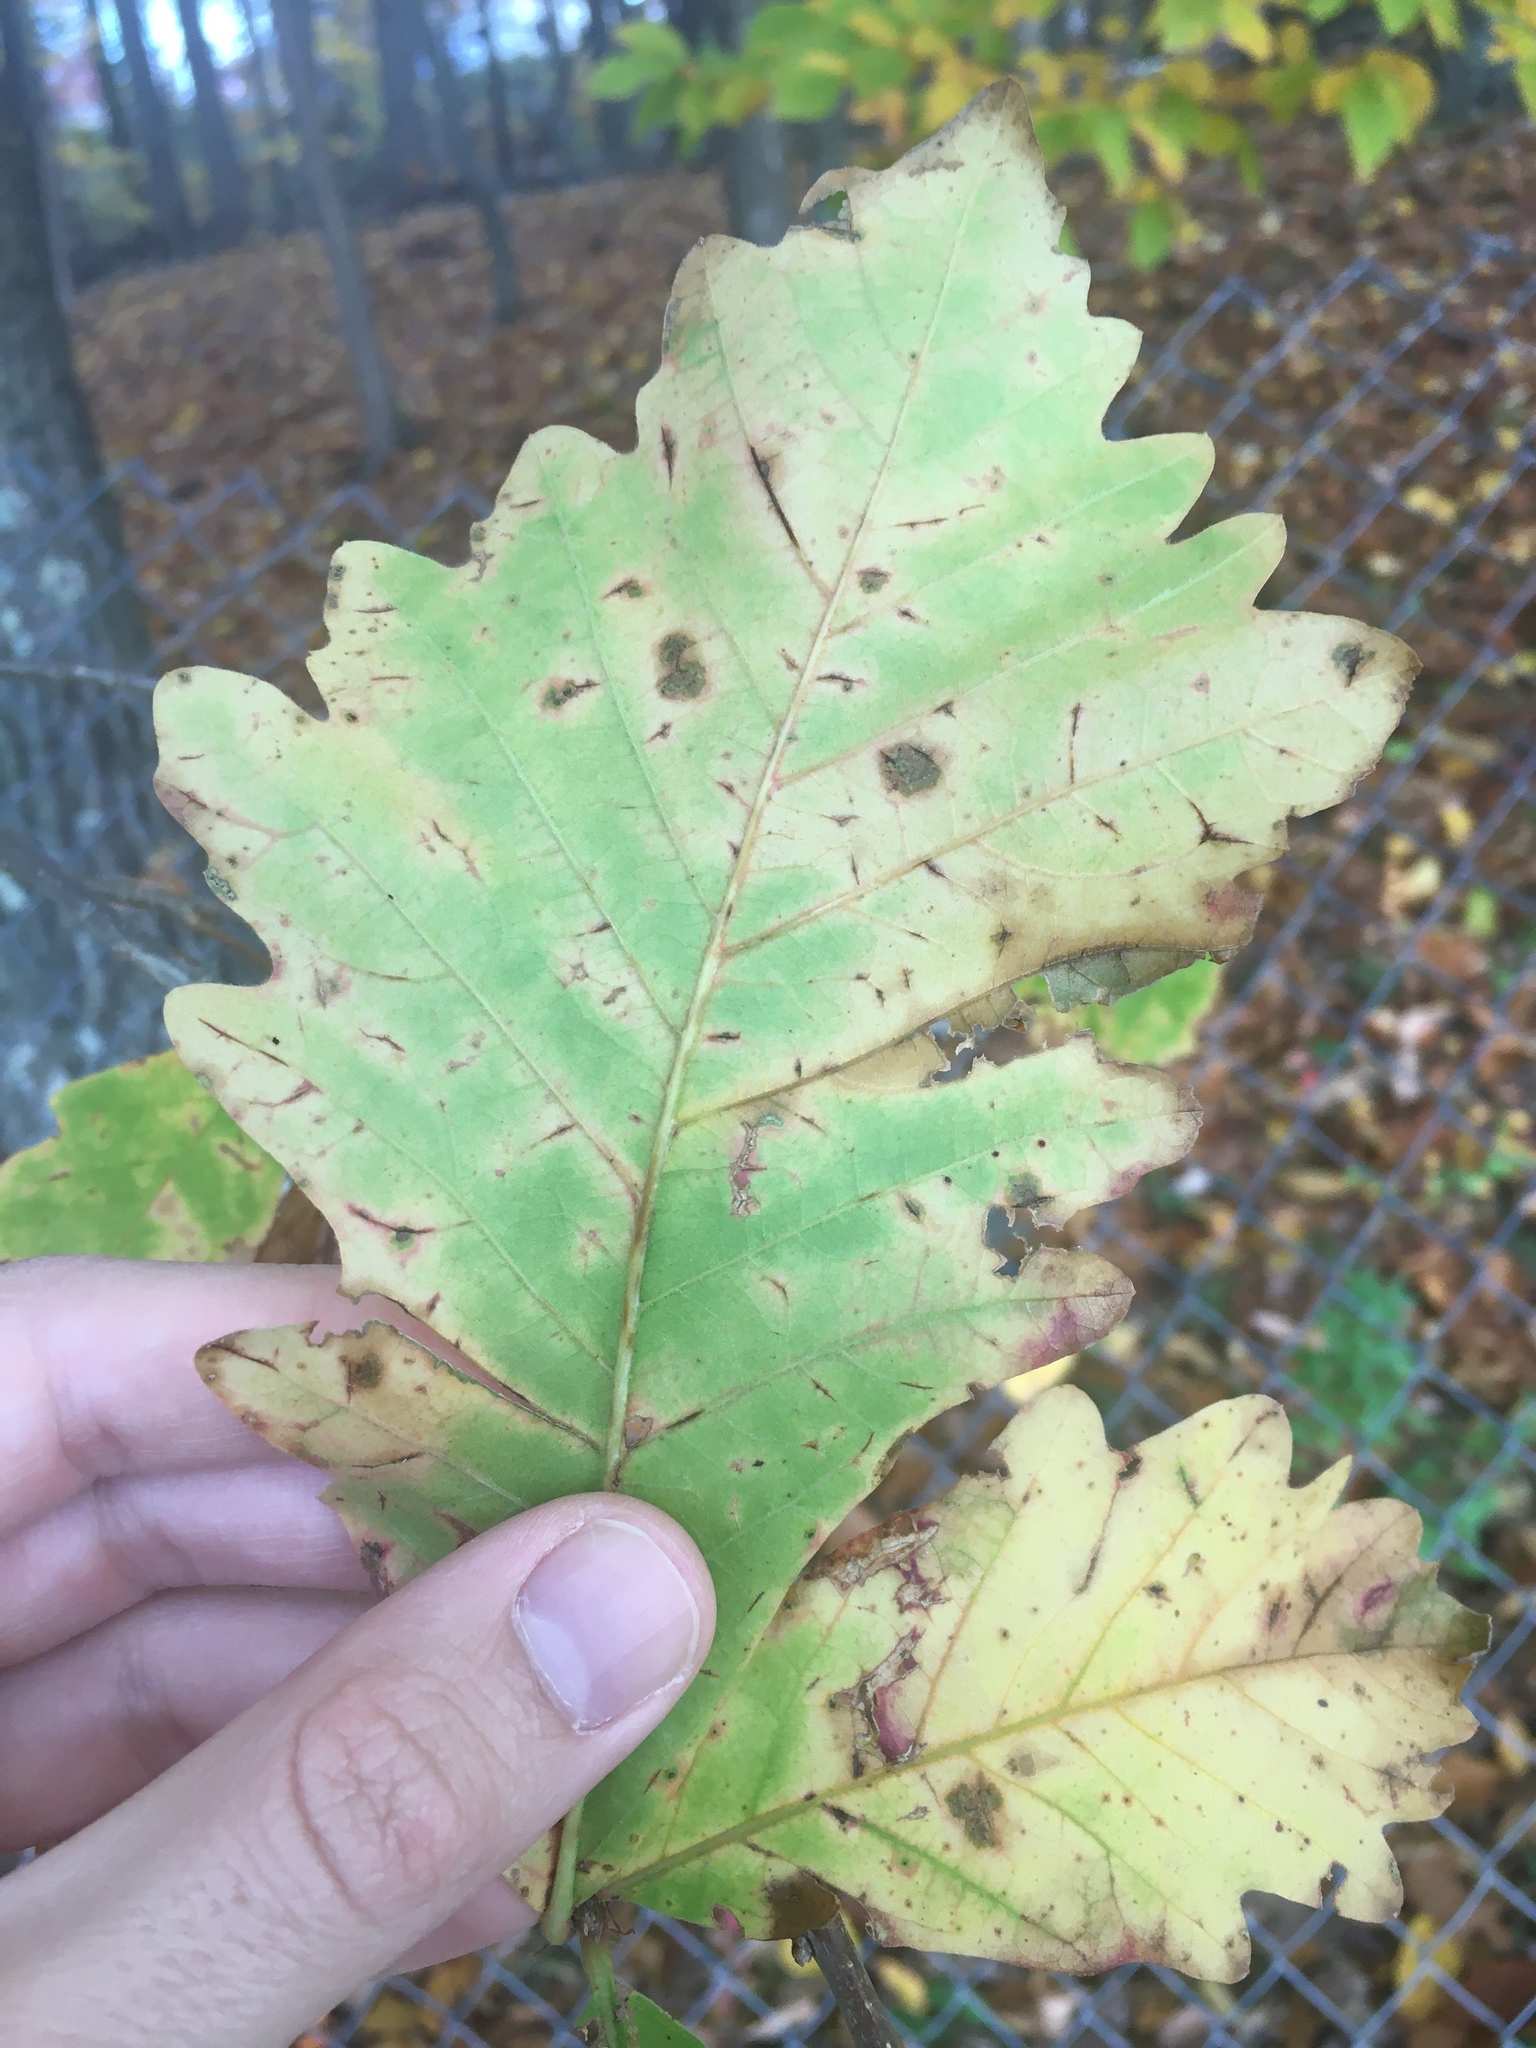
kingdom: Plantae
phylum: Tracheophyta
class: Magnoliopsida
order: Fagales
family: Fagaceae
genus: Quercus
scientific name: Quercus bicolor
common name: Swamp white oak
